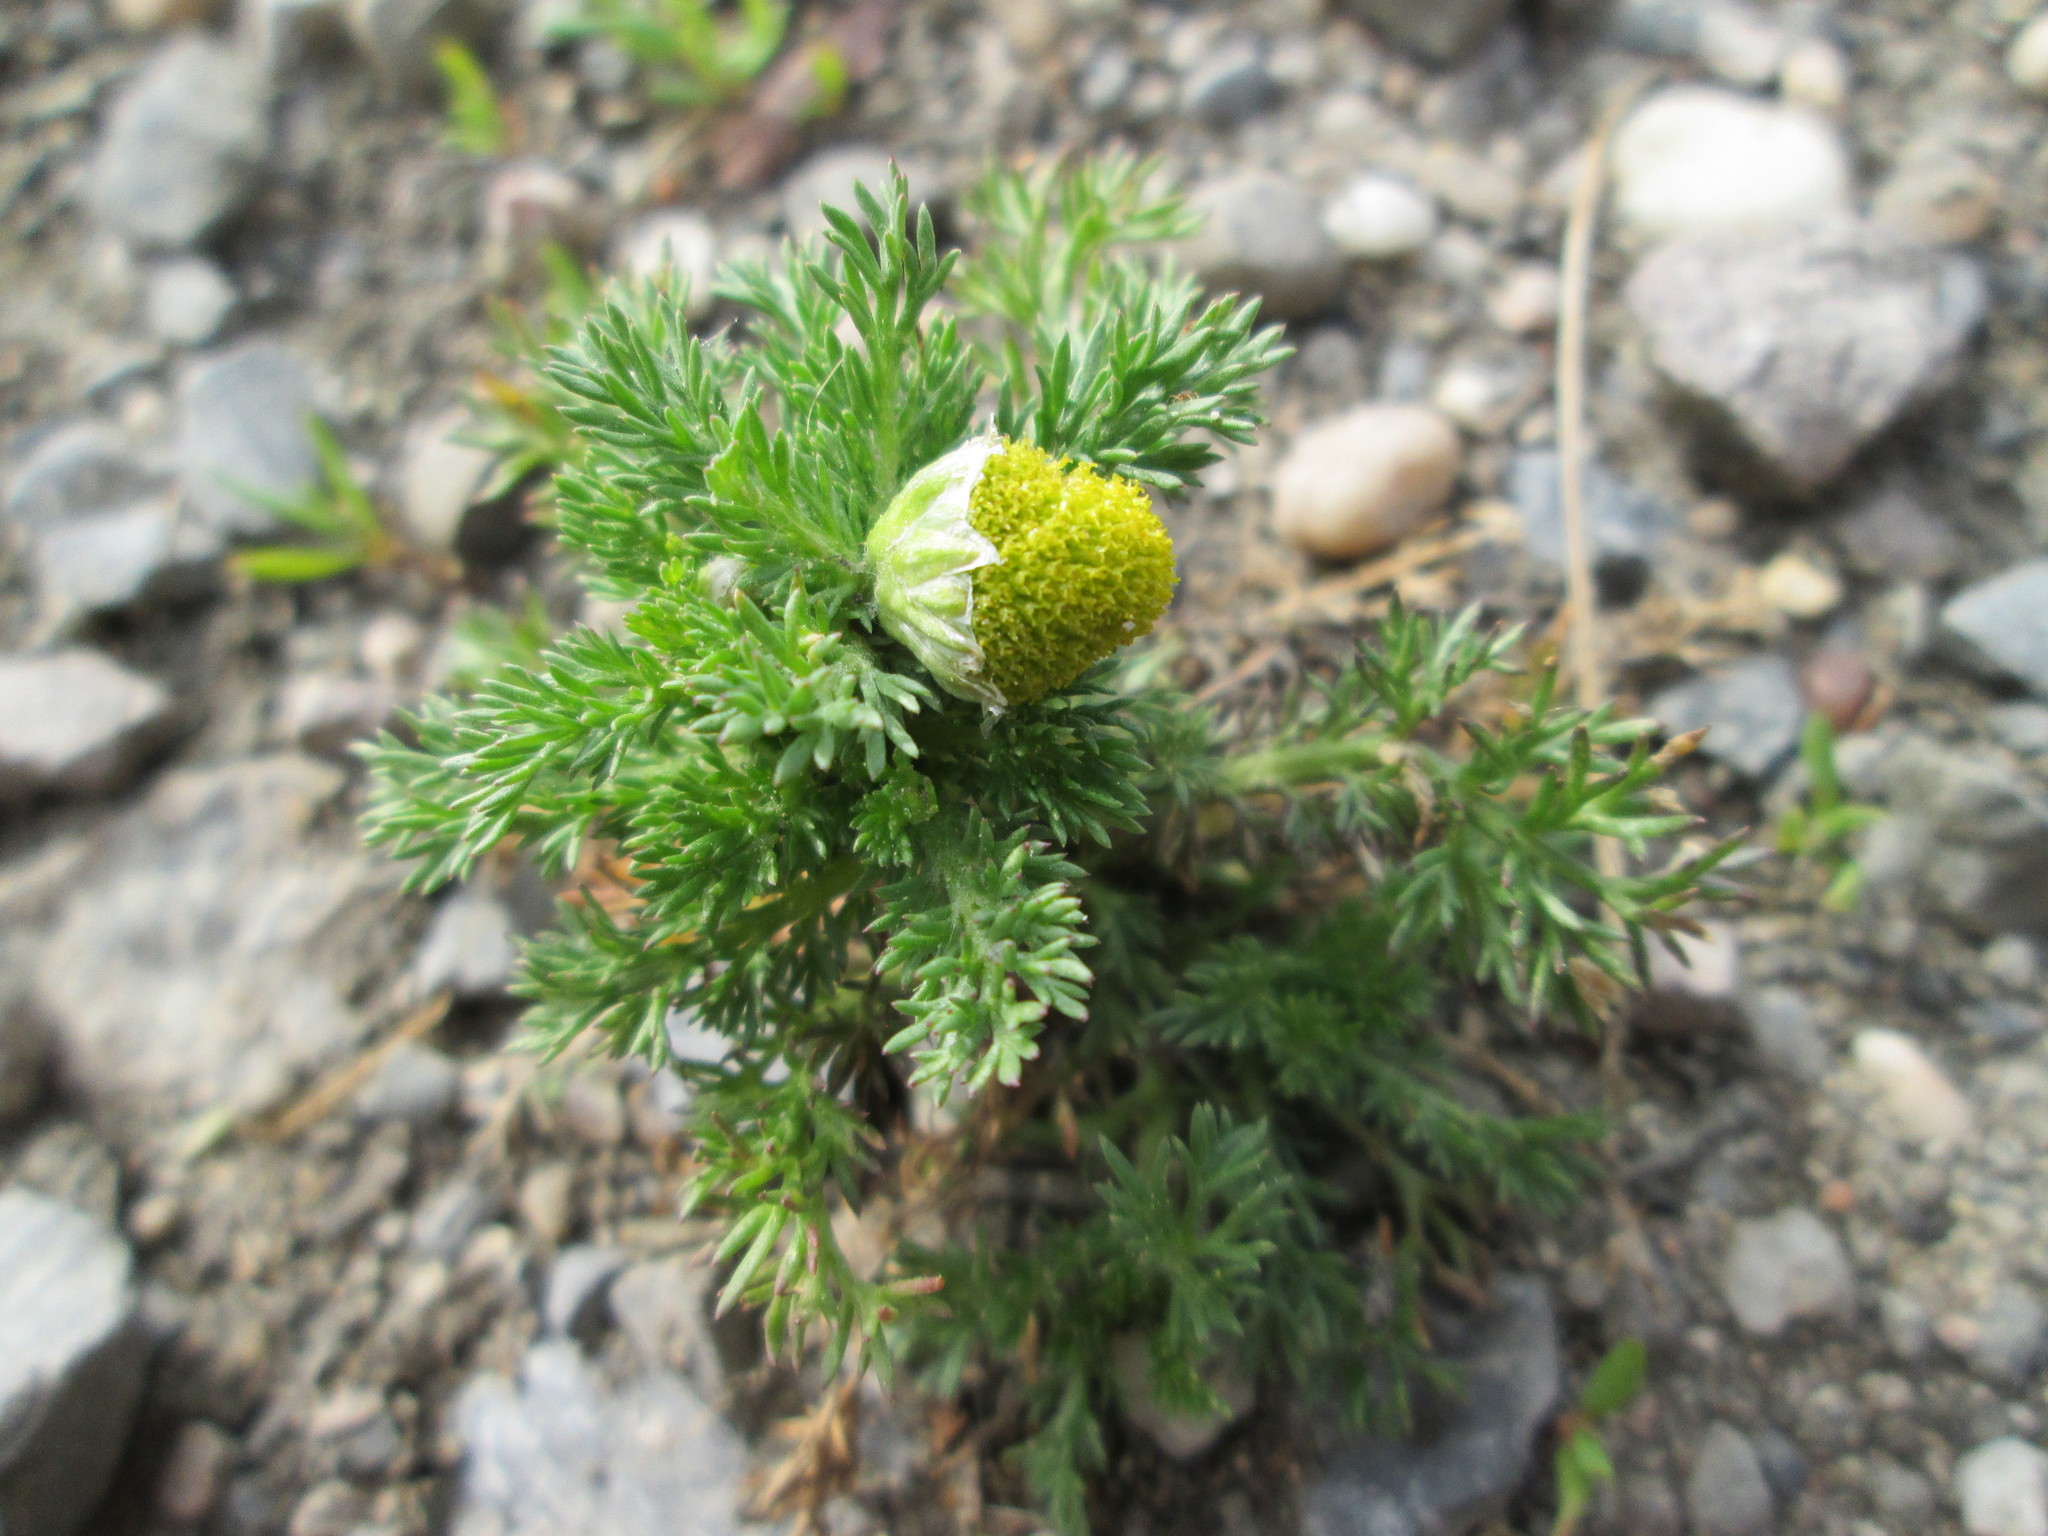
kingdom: Plantae
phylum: Tracheophyta
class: Magnoliopsida
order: Asterales
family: Asteraceae
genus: Matricaria
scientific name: Matricaria discoidea
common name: Disc mayweed
